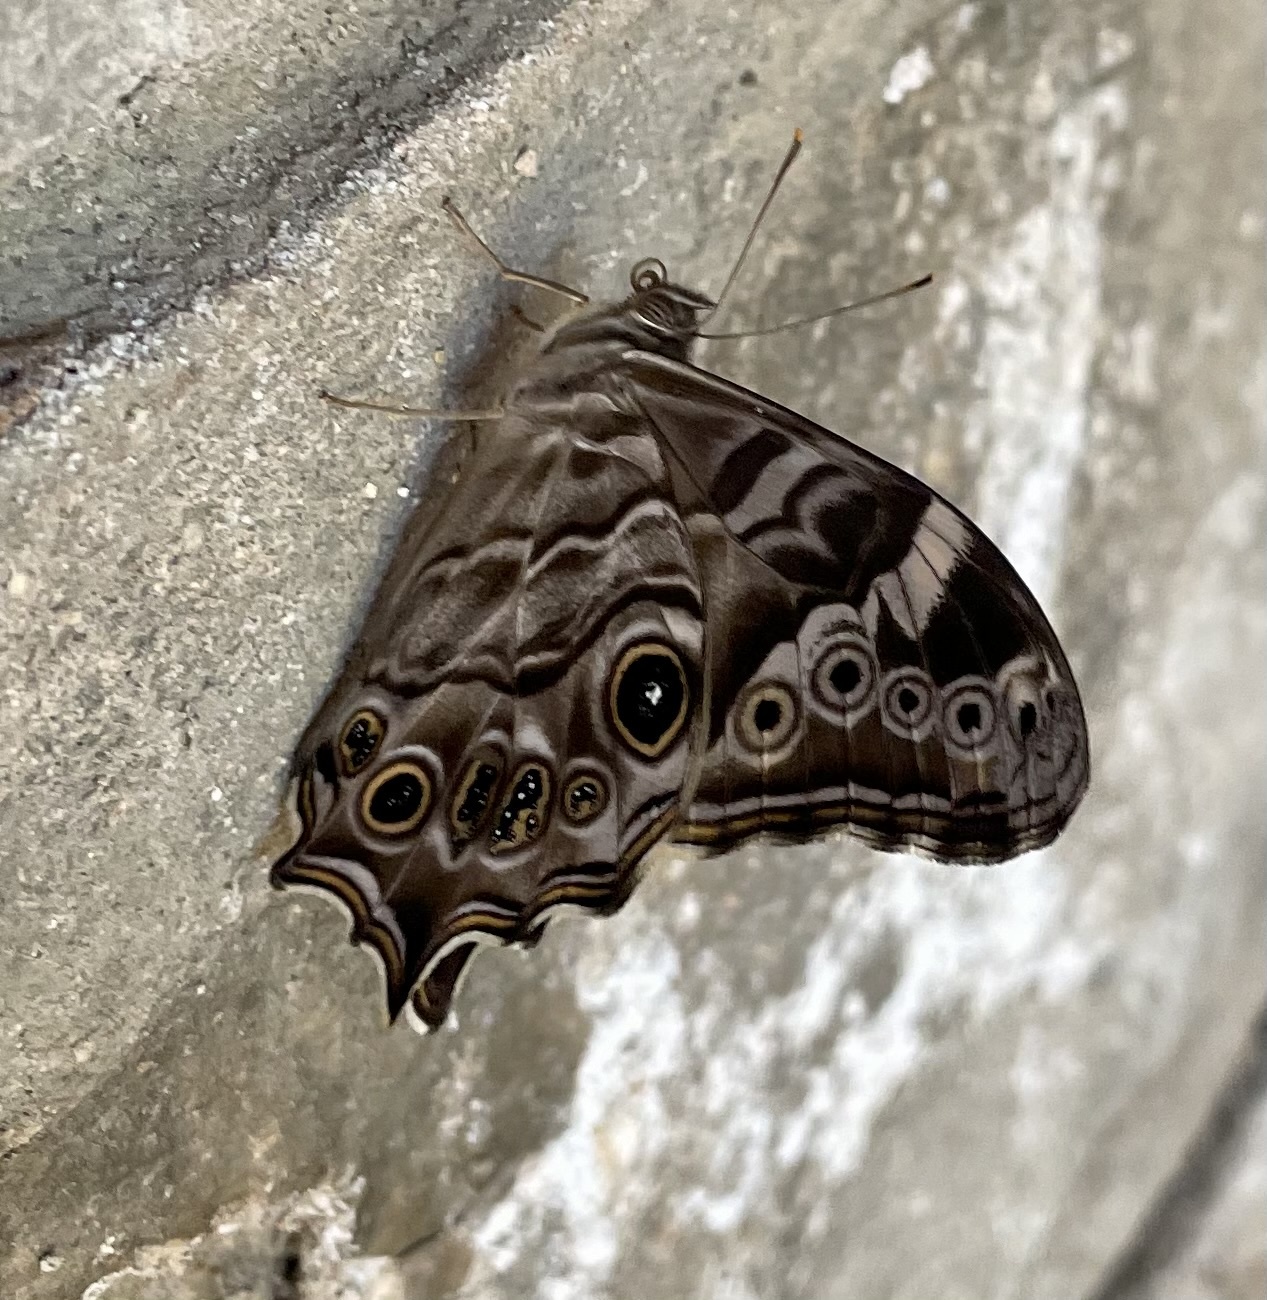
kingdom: Animalia
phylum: Arthropoda
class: Insecta
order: Lepidoptera
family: Nymphalidae
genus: Lethe
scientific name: Lethe rohria
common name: Common treebrown
